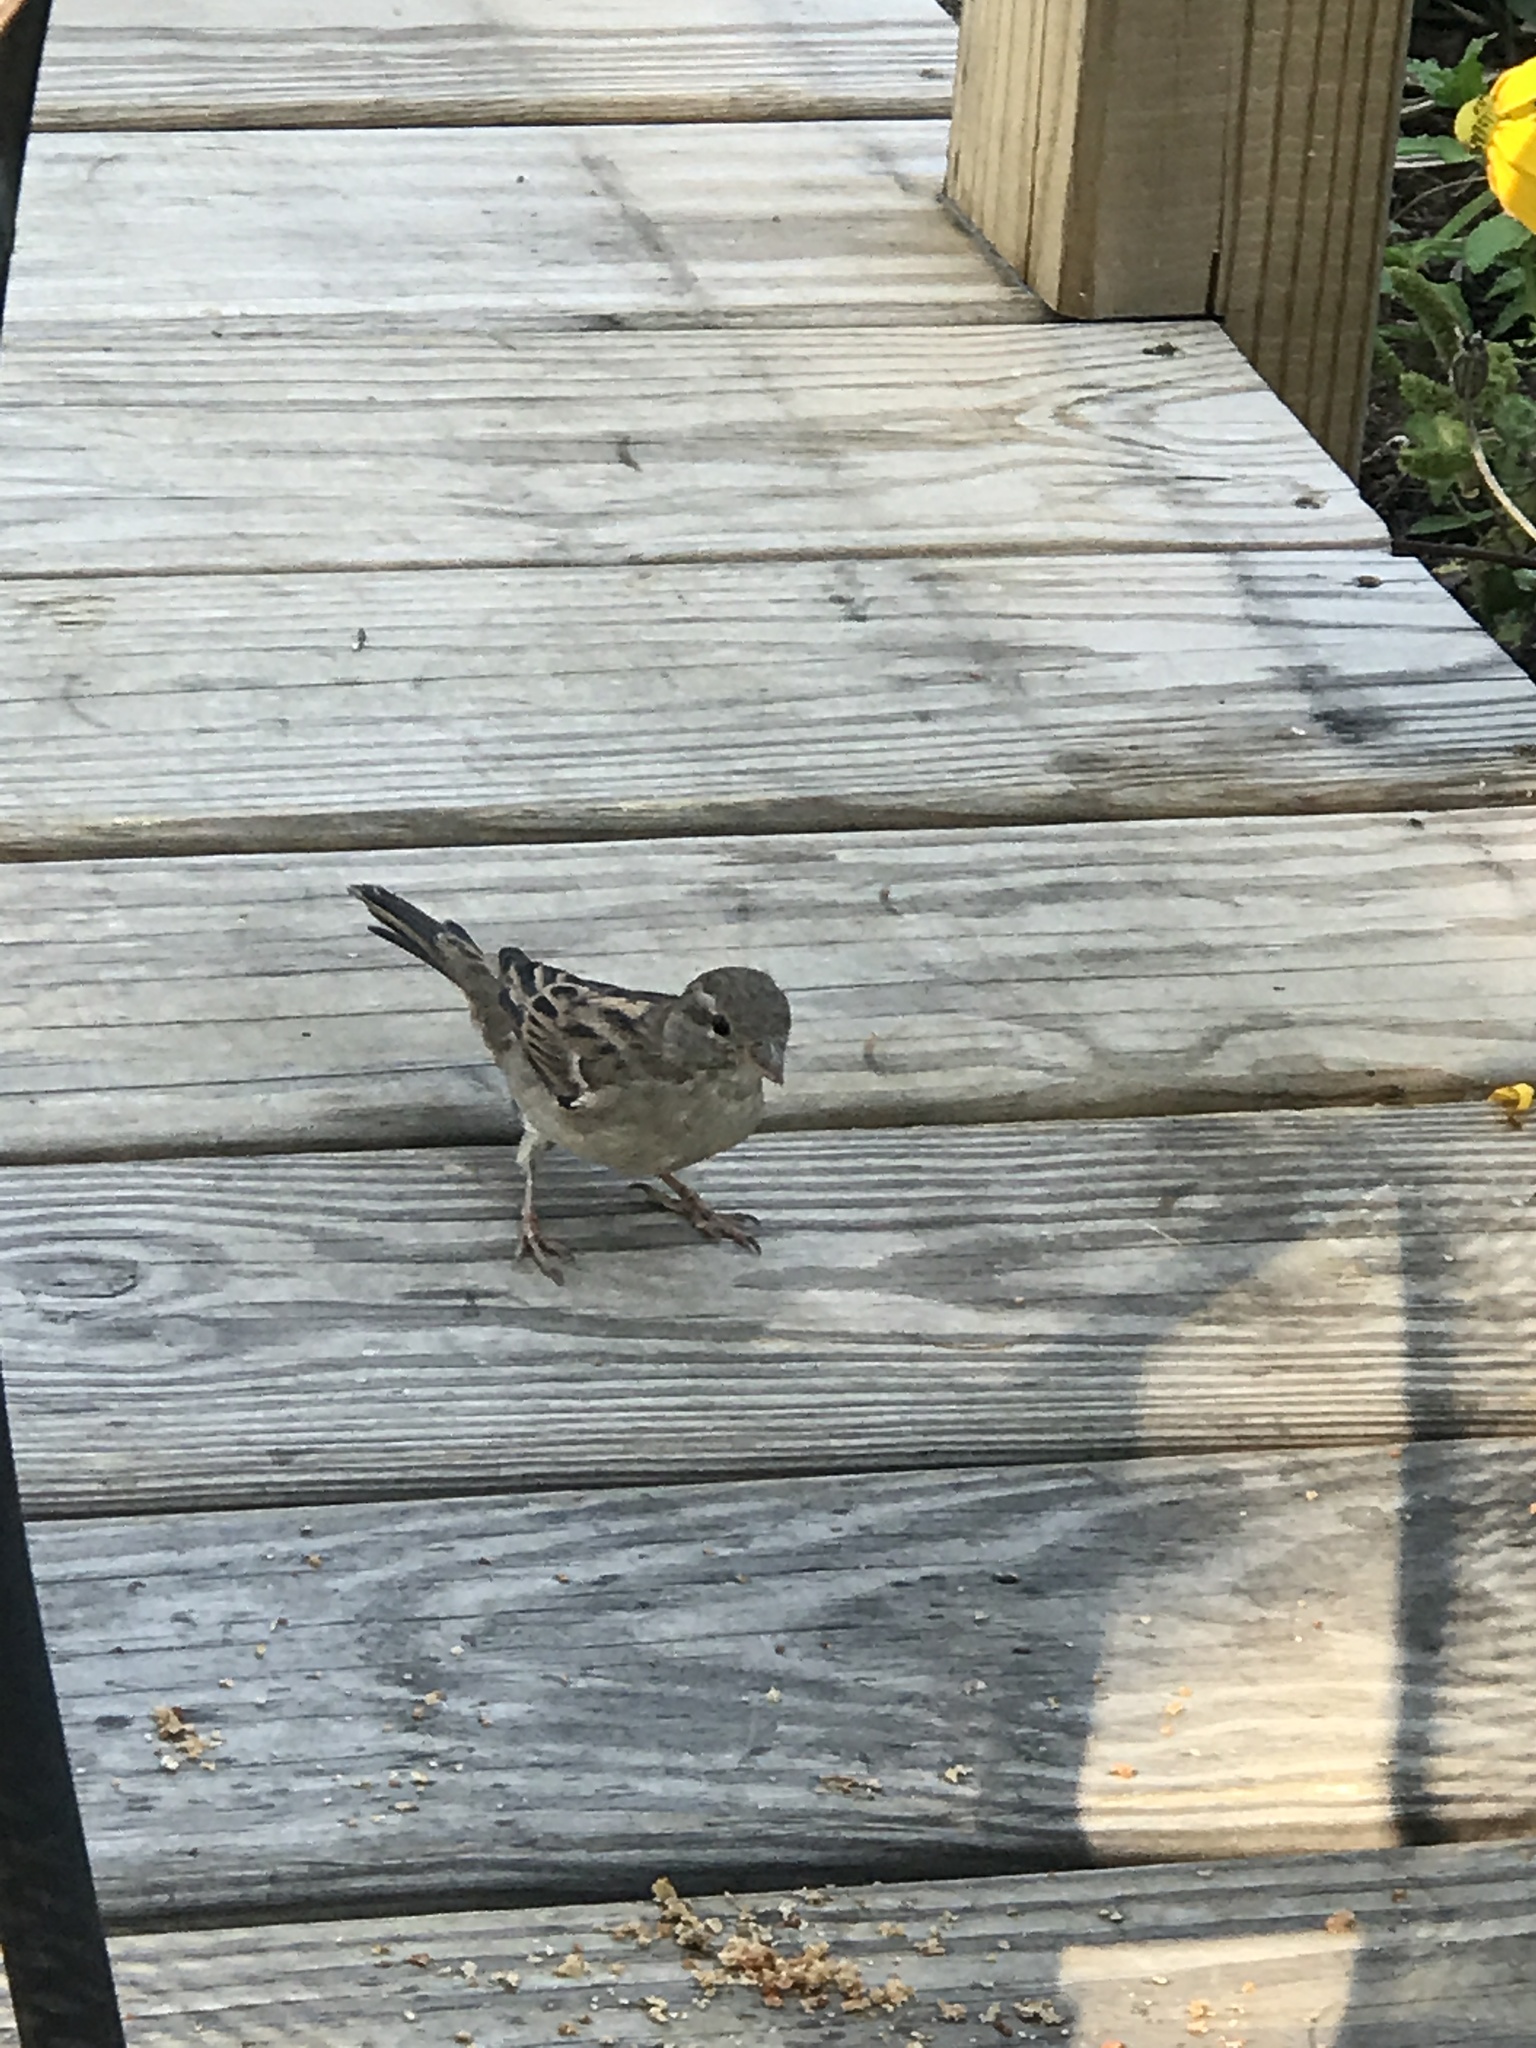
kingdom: Animalia
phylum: Chordata
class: Aves
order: Passeriformes
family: Passeridae
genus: Passer
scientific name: Passer domesticus
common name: House sparrow
